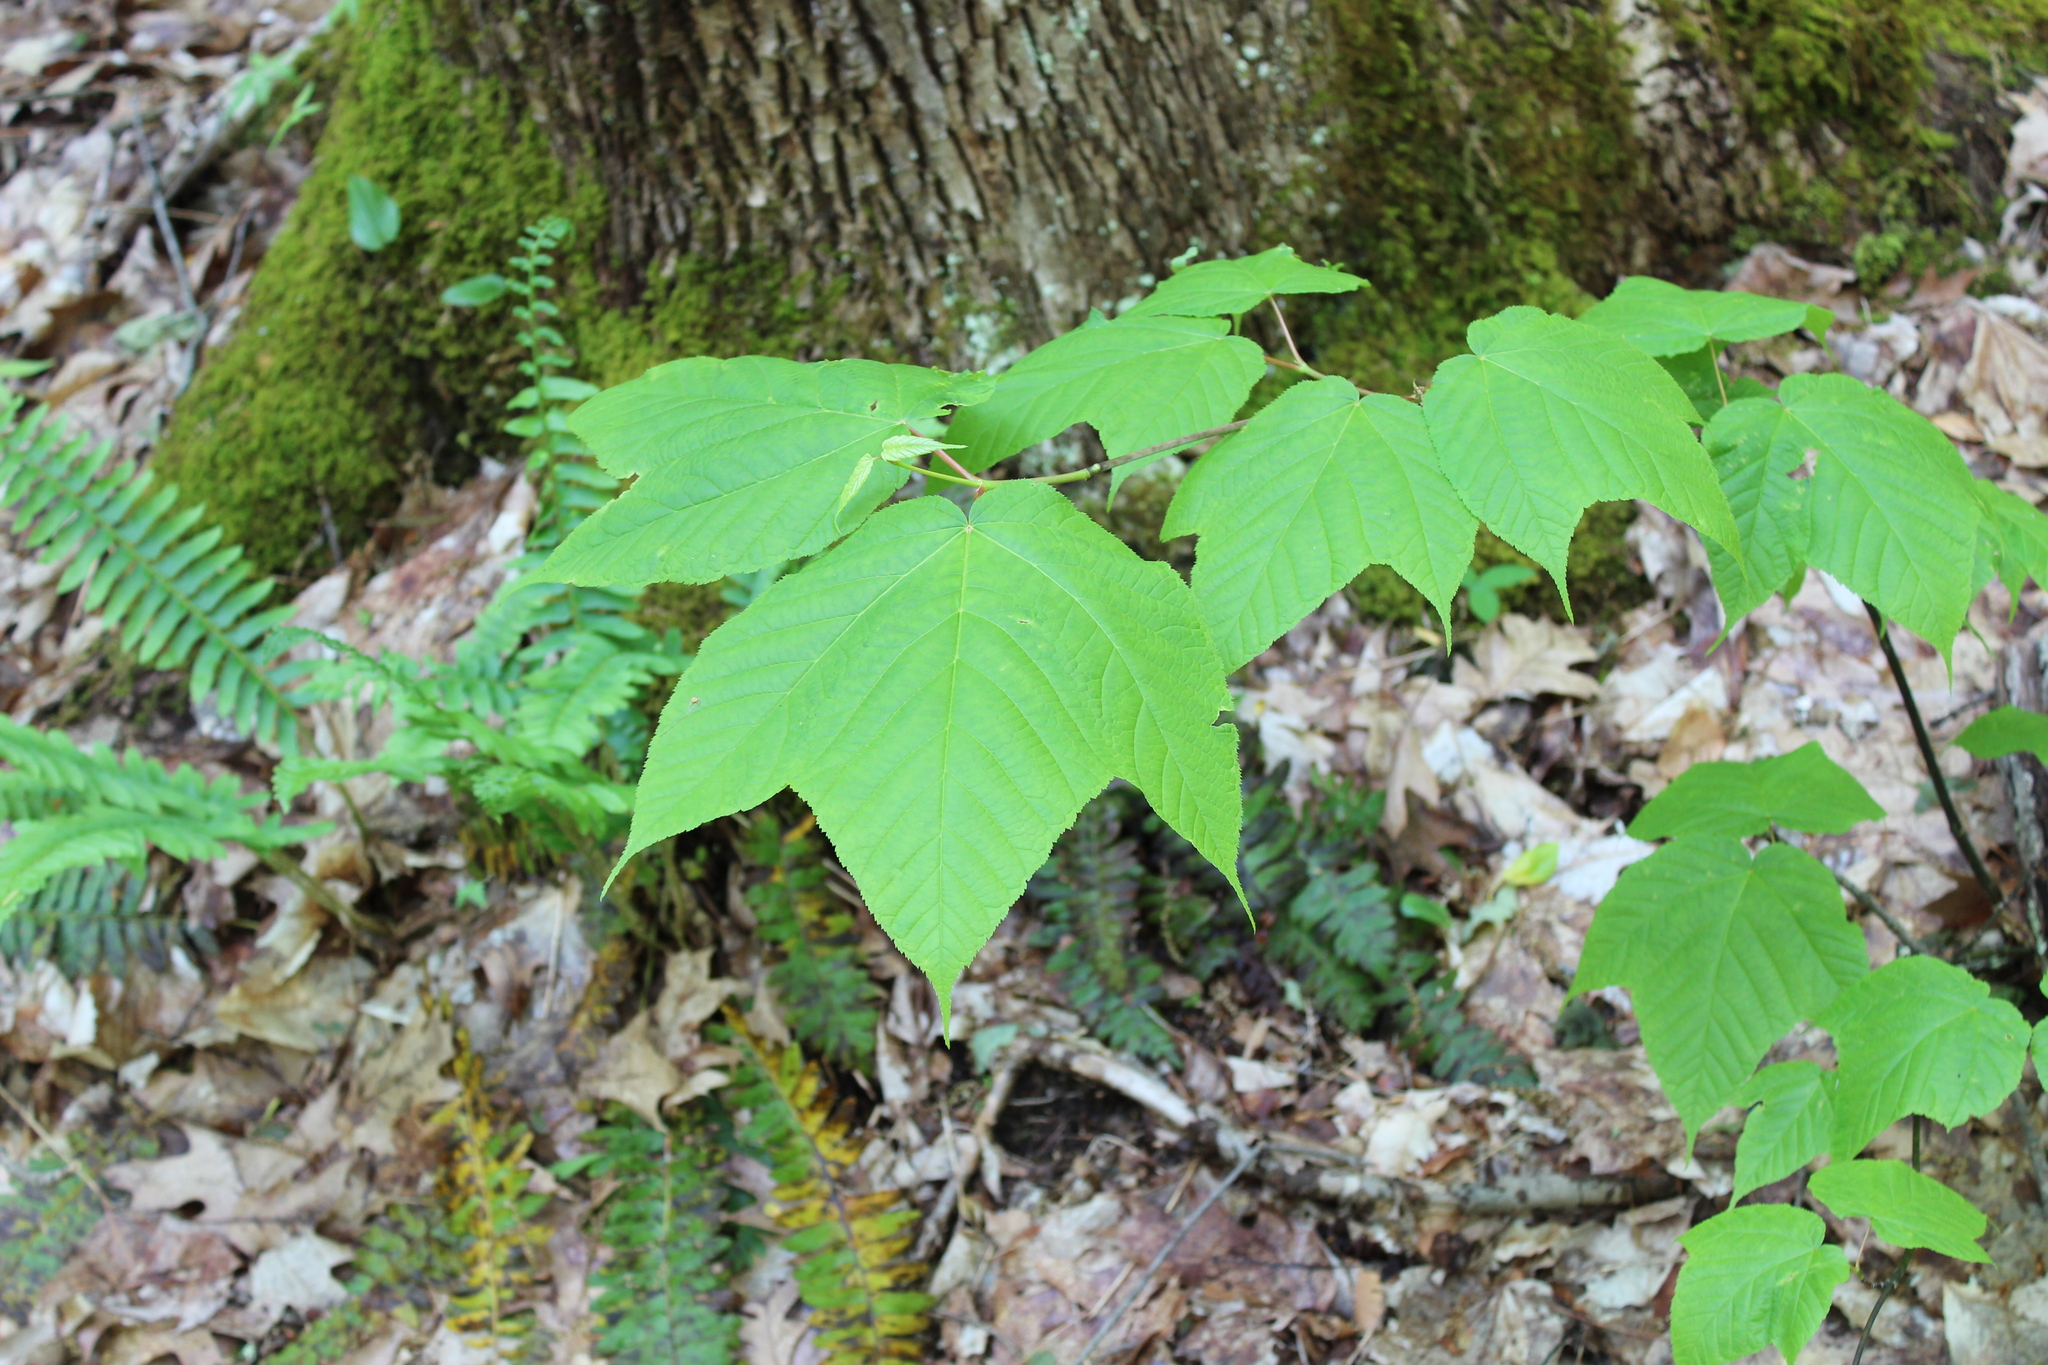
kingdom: Plantae
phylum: Tracheophyta
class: Magnoliopsida
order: Sapindales
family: Sapindaceae
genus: Acer
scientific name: Acer pensylvanicum
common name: Moosewood
